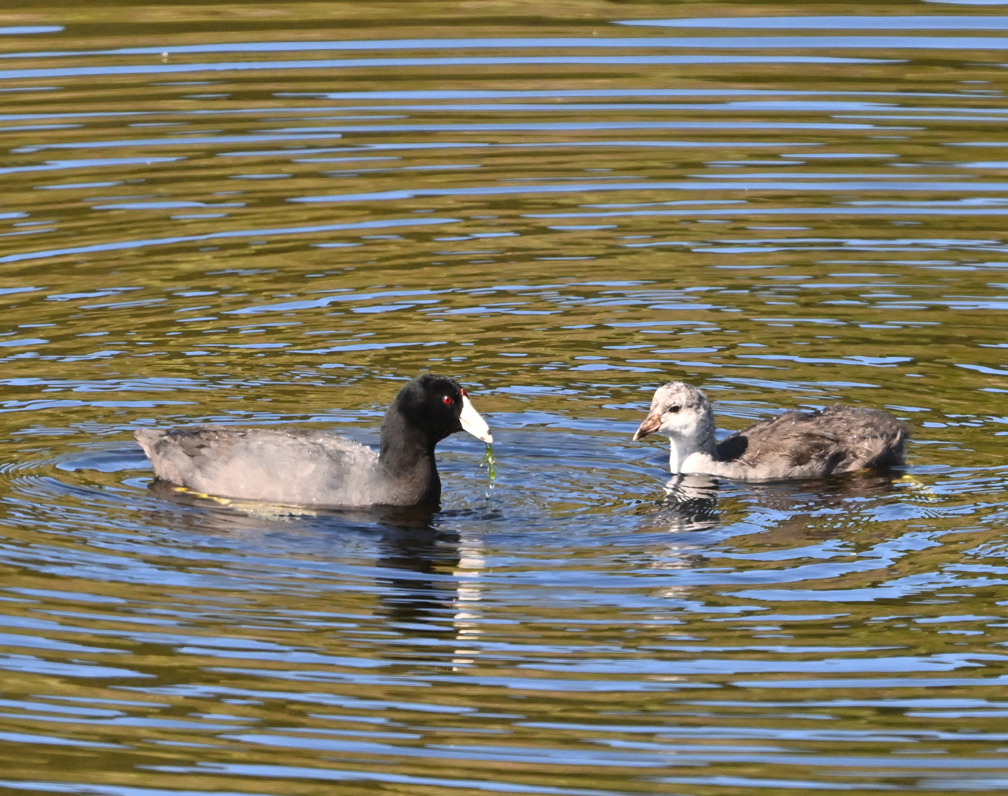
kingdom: Animalia
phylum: Chordata
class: Aves
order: Gruiformes
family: Rallidae
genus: Fulica
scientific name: Fulica americana
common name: American coot
